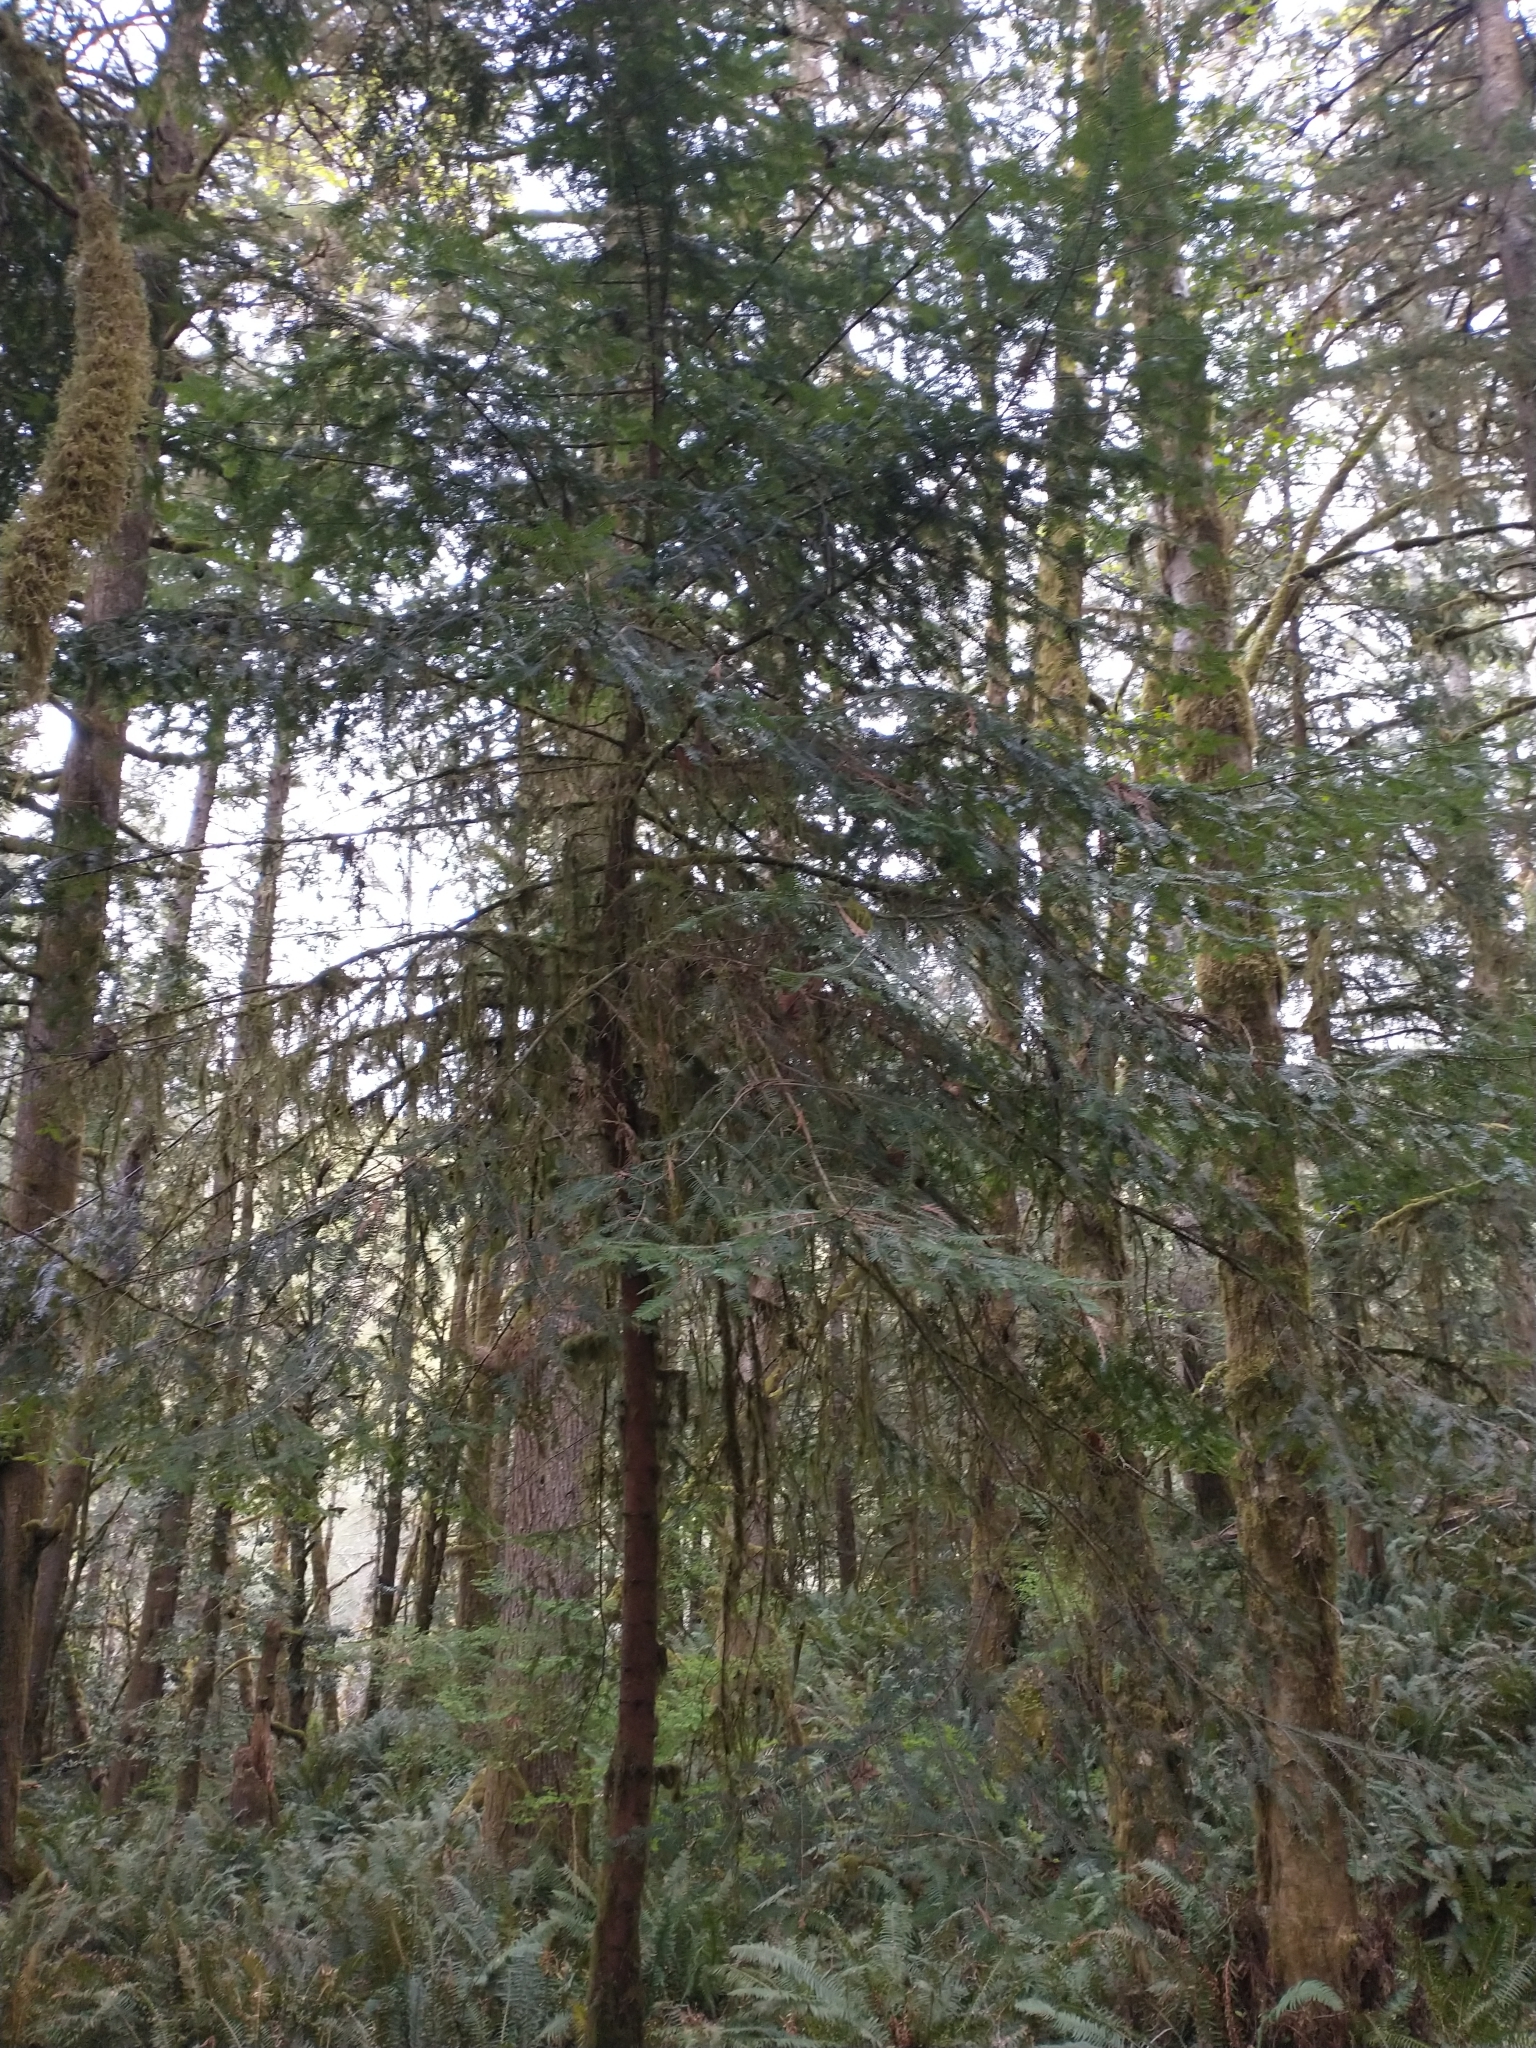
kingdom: Plantae
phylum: Tracheophyta
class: Pinopsida
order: Pinales
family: Pinaceae
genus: Abies
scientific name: Abies grandis
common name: Giant fir
